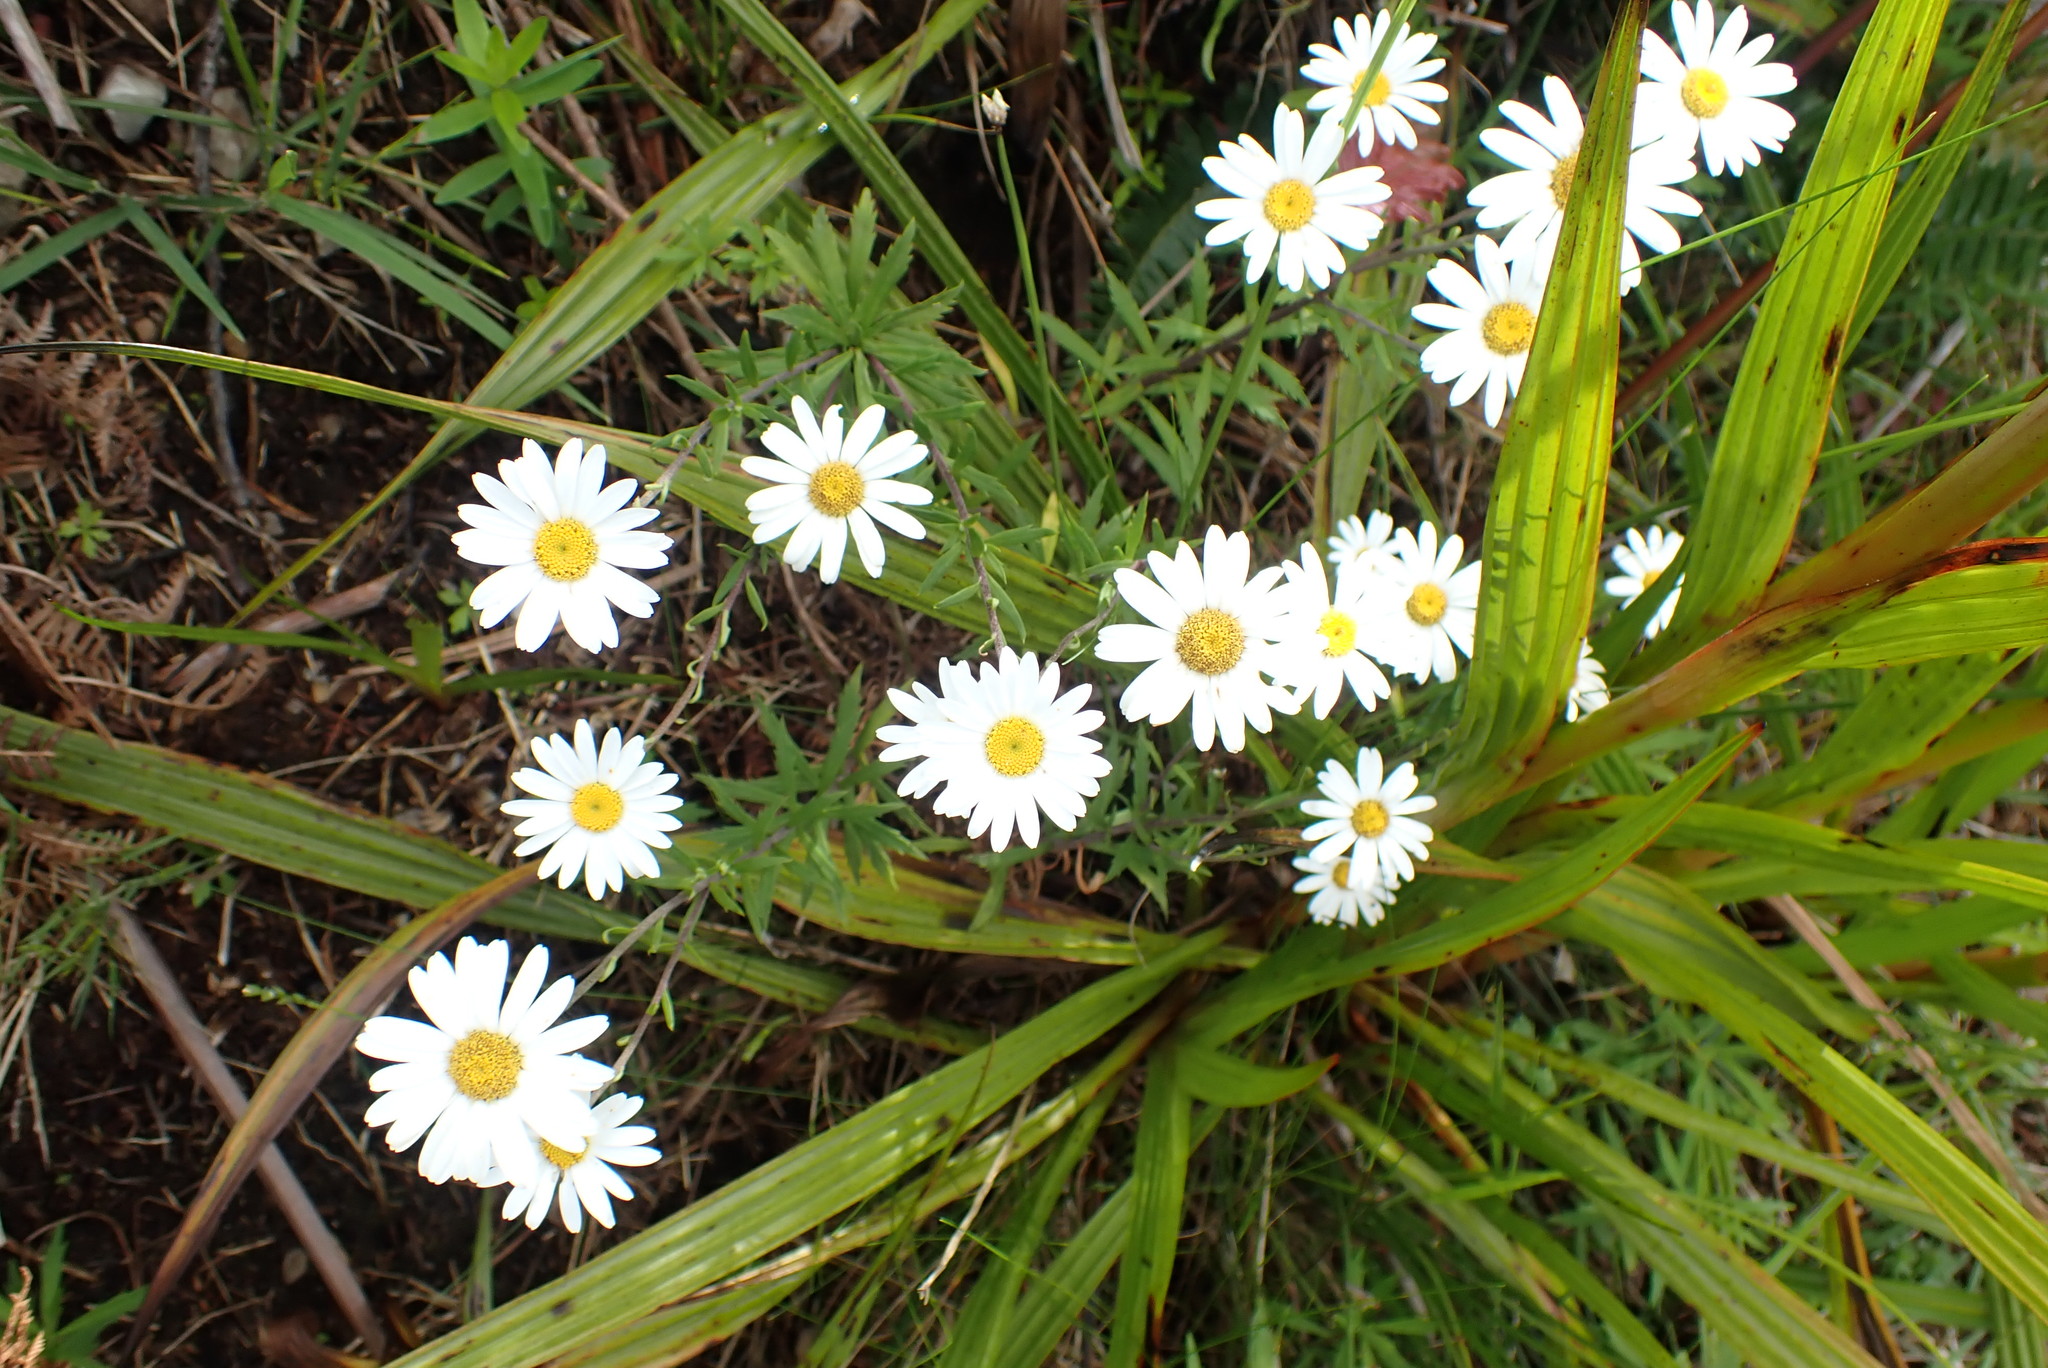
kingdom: Plantae
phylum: Tracheophyta
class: Magnoliopsida
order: Asterales
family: Asteraceae
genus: Osmitopsis
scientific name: Osmitopsis osmitoides
